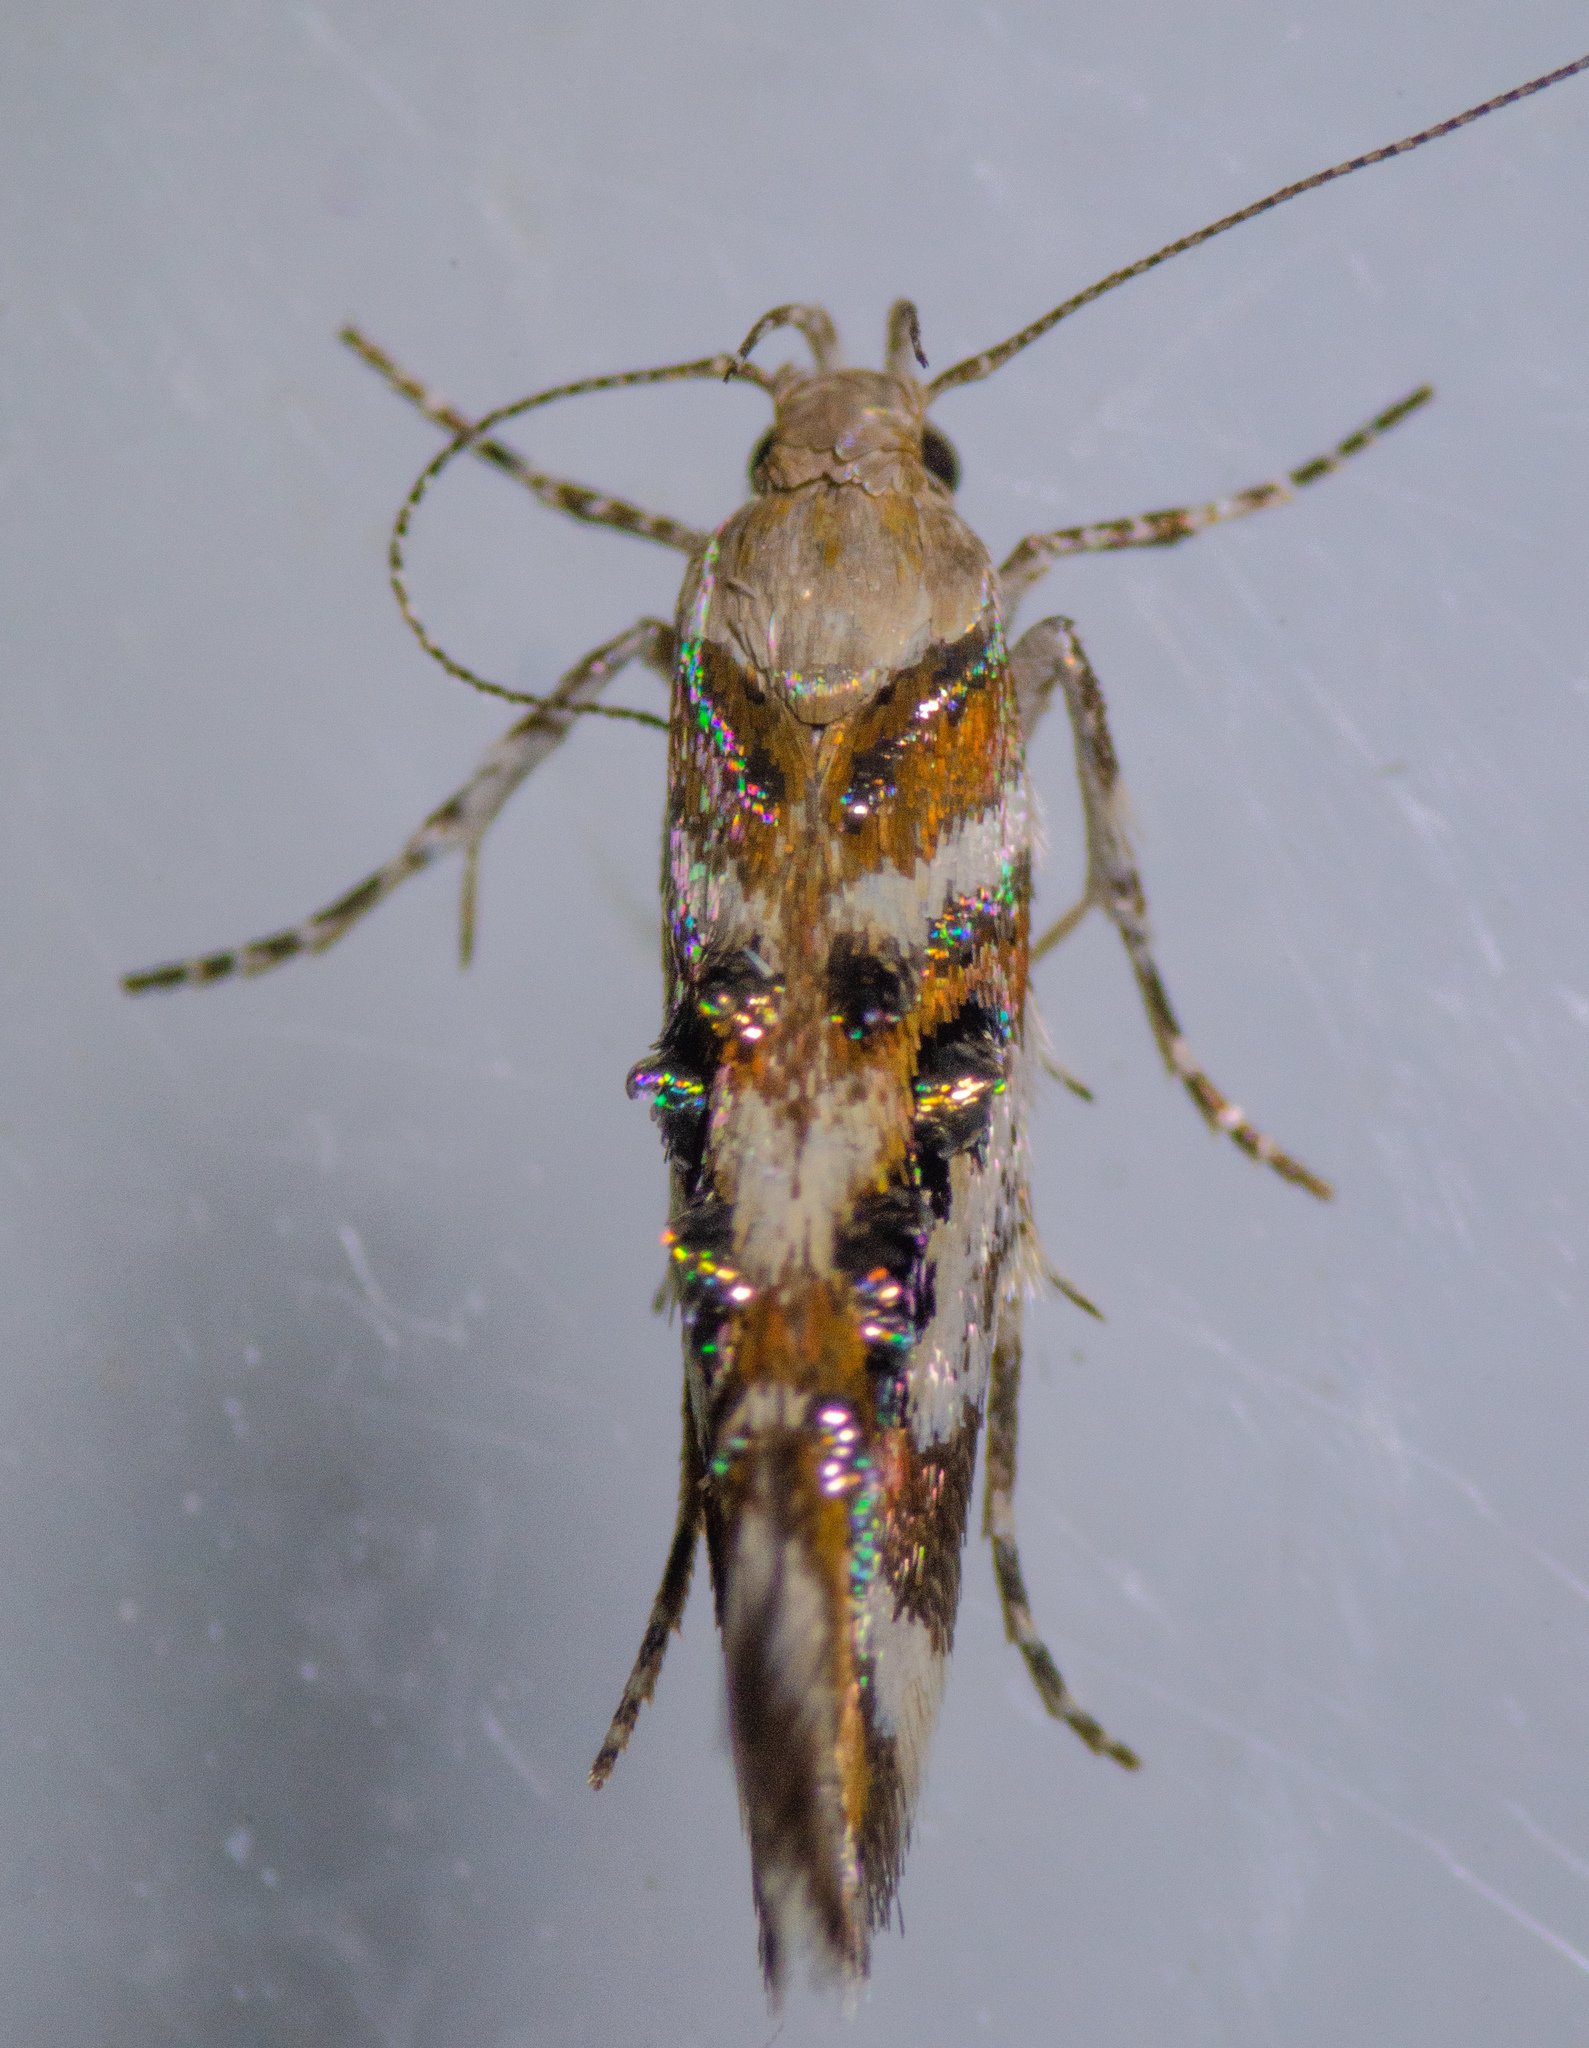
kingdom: Animalia
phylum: Arthropoda
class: Insecta
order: Lepidoptera
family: Gelechiidae
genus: Aristotelia
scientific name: Aristotelia elegantella
